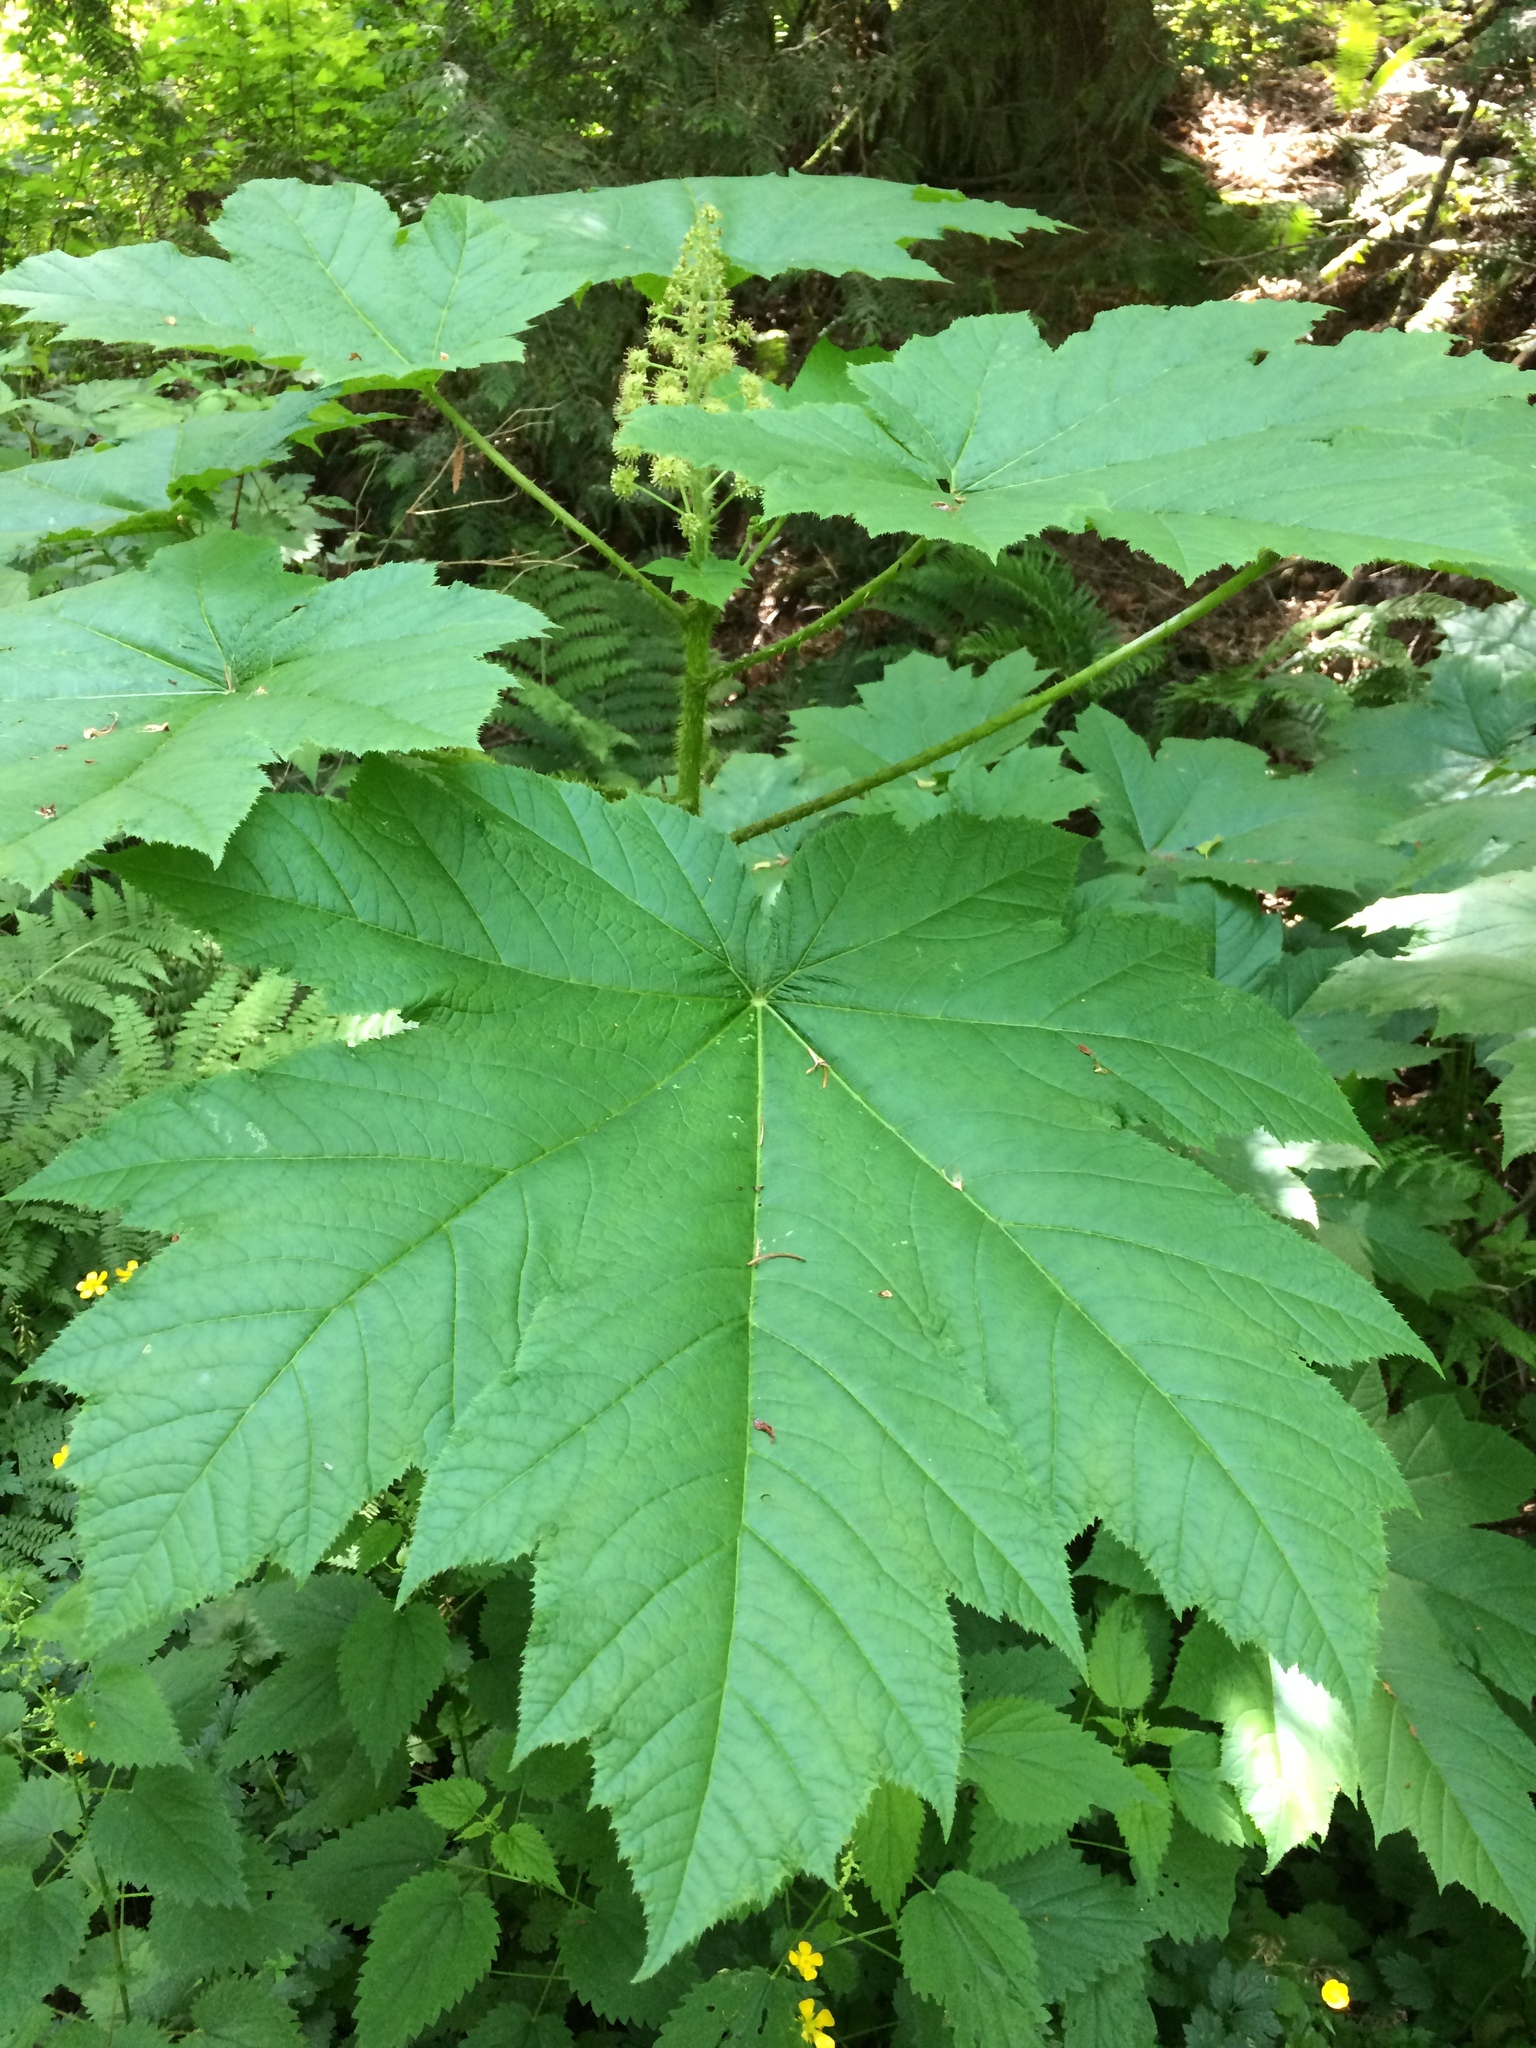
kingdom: Plantae
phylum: Tracheophyta
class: Magnoliopsida
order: Apiales
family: Araliaceae
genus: Oplopanax
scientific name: Oplopanax horridus
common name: Devil's walking-stick
